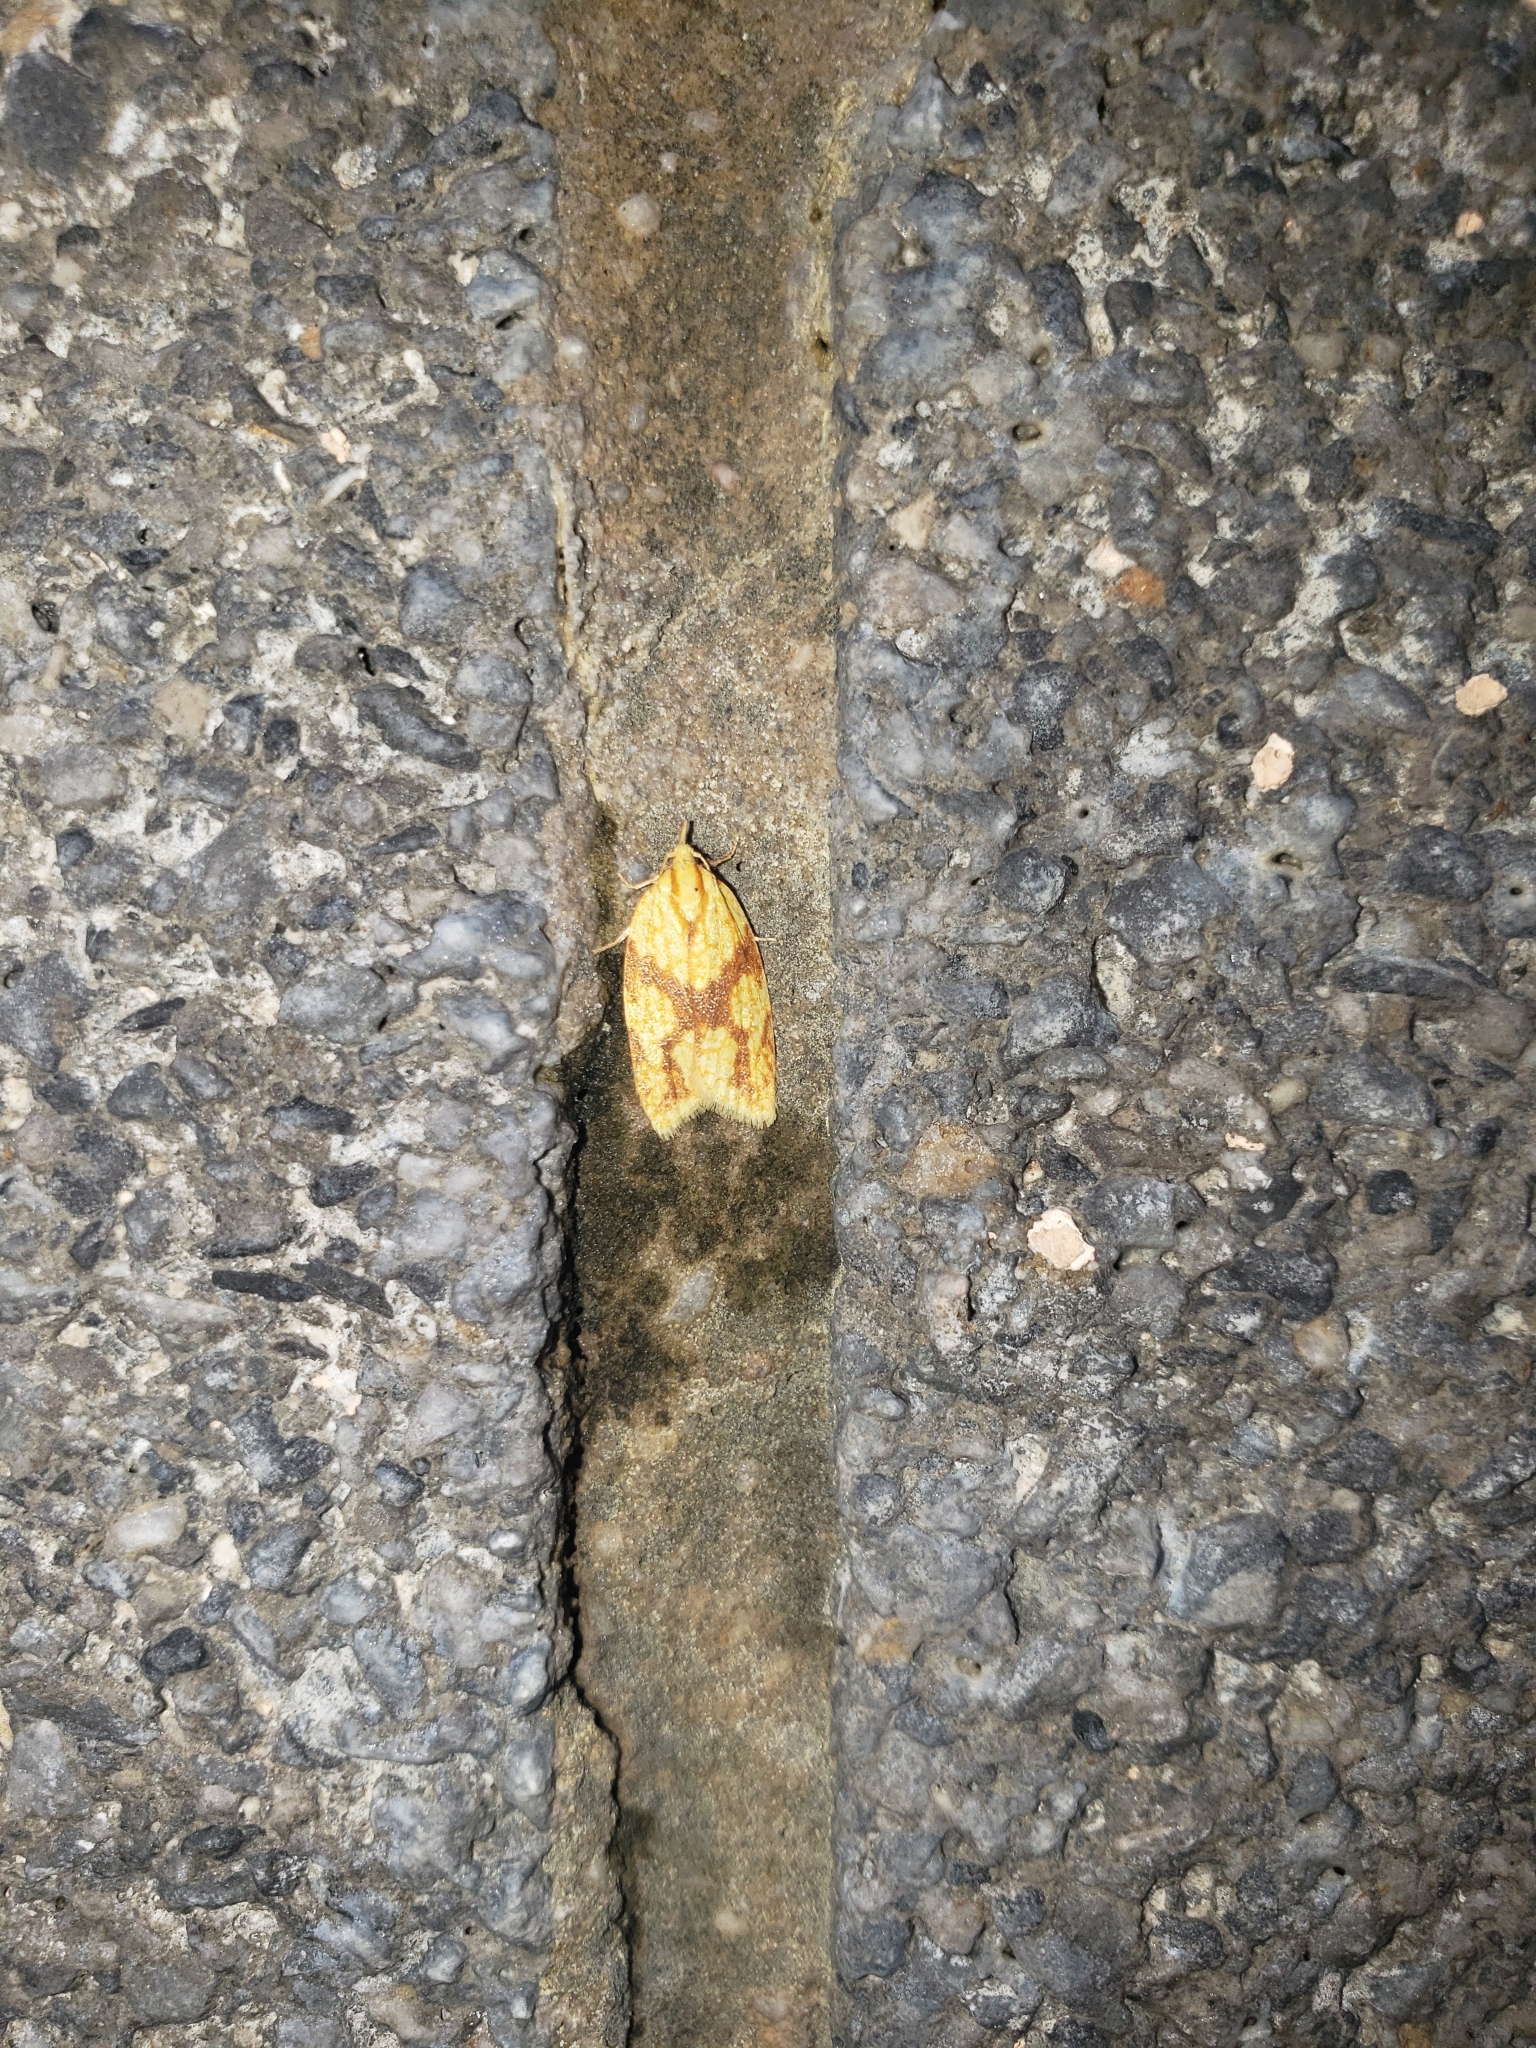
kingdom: Animalia
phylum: Arthropoda
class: Insecta
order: Lepidoptera
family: Tortricidae
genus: Sparganothis
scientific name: Sparganothis sulfureana
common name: Sparganothis fruitworm moth
